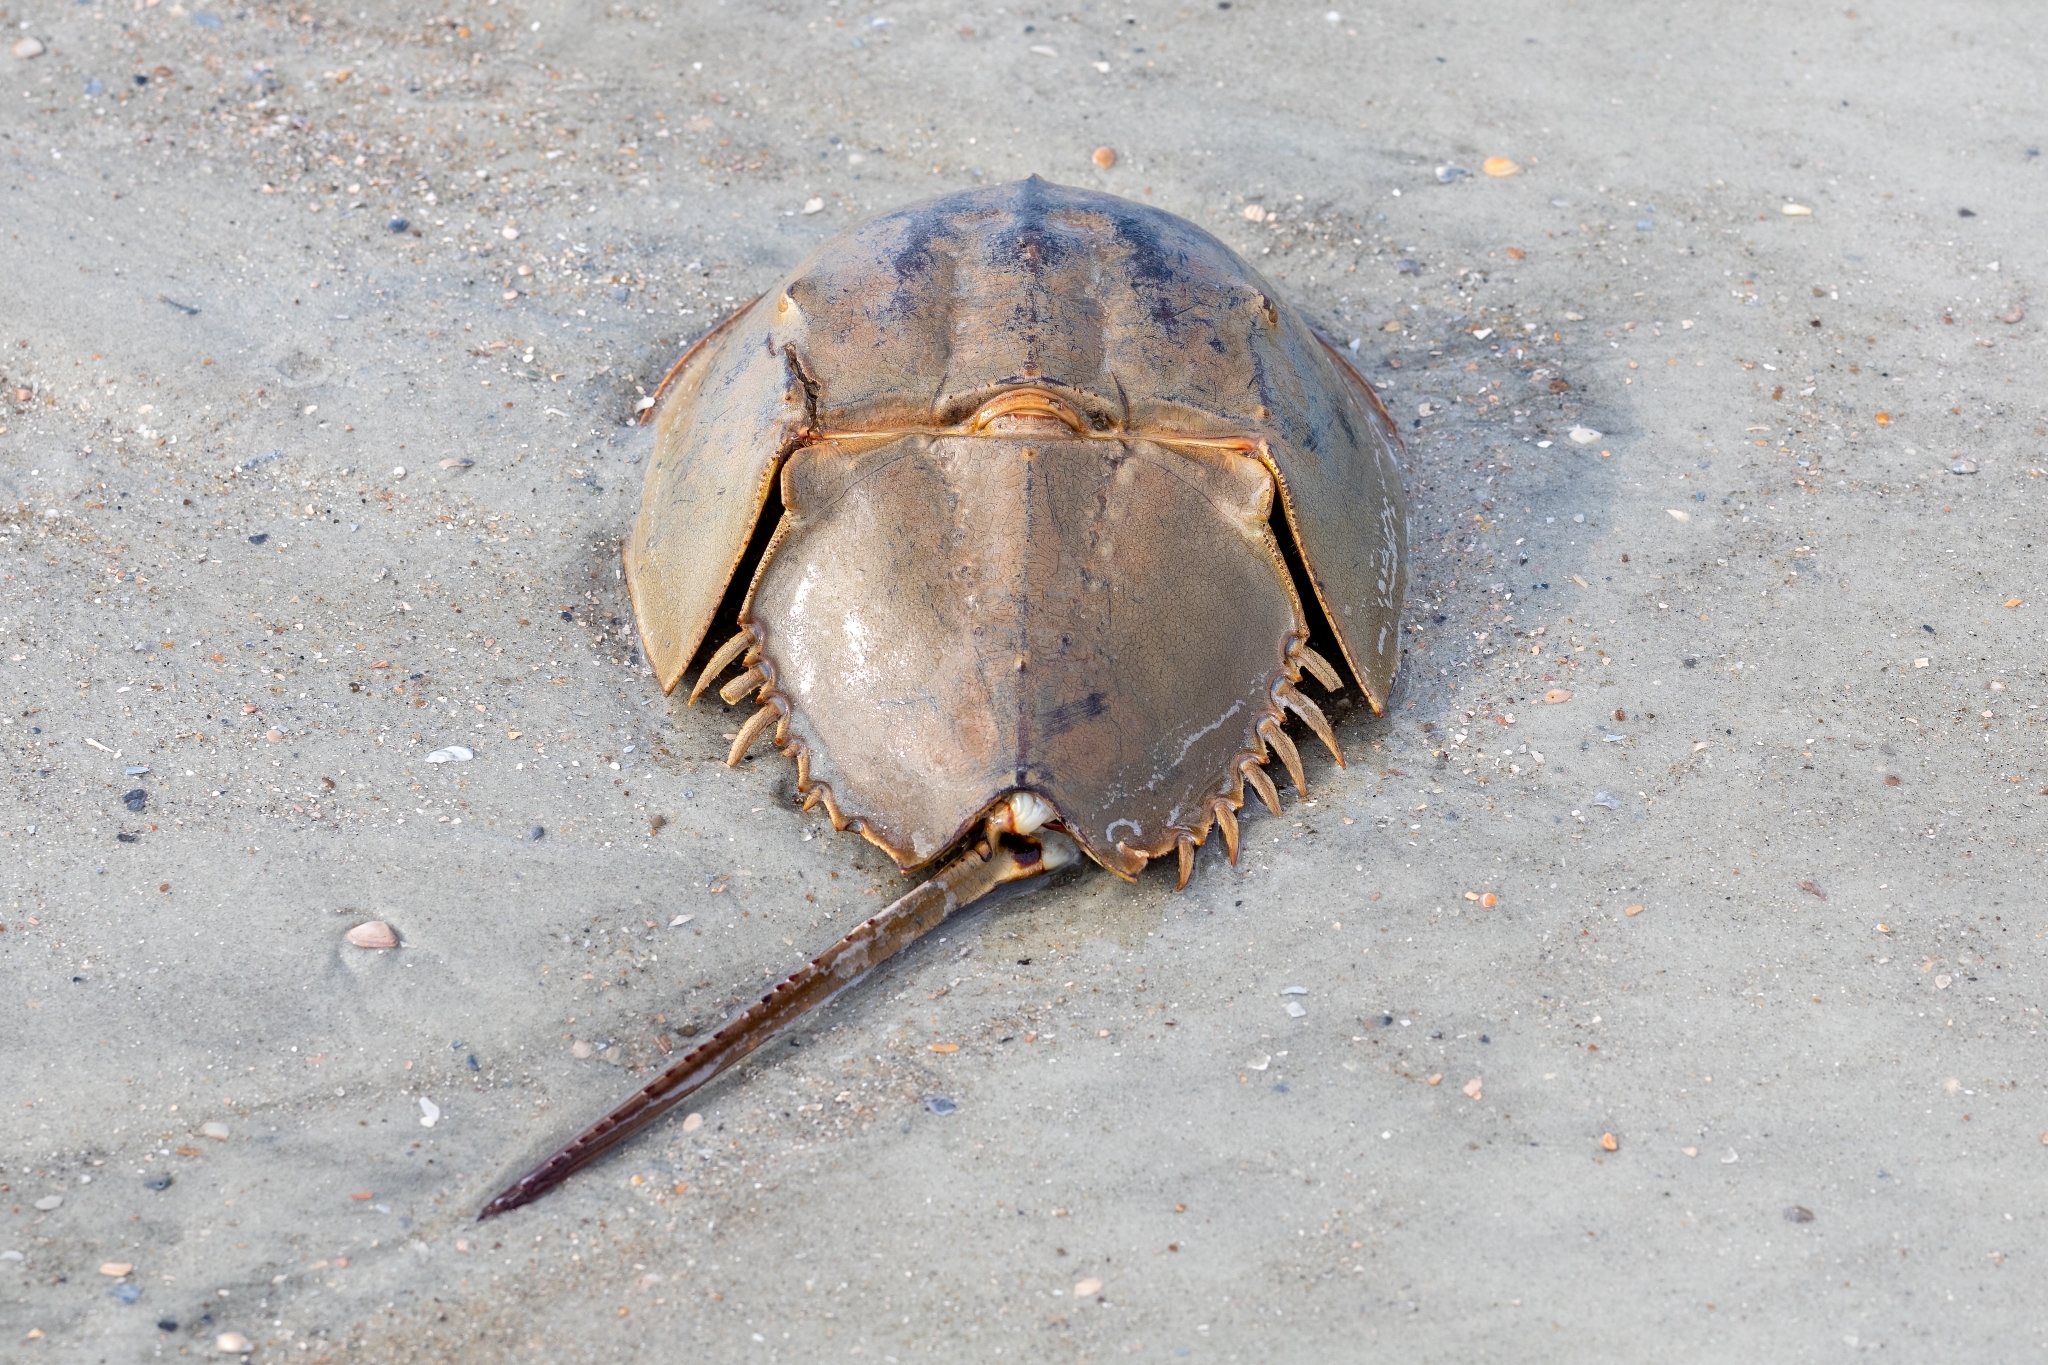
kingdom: Animalia
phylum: Arthropoda
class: Merostomata
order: Xiphosurida
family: Limulidae
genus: Limulus
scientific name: Limulus polyphemus
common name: Horseshoe crab
